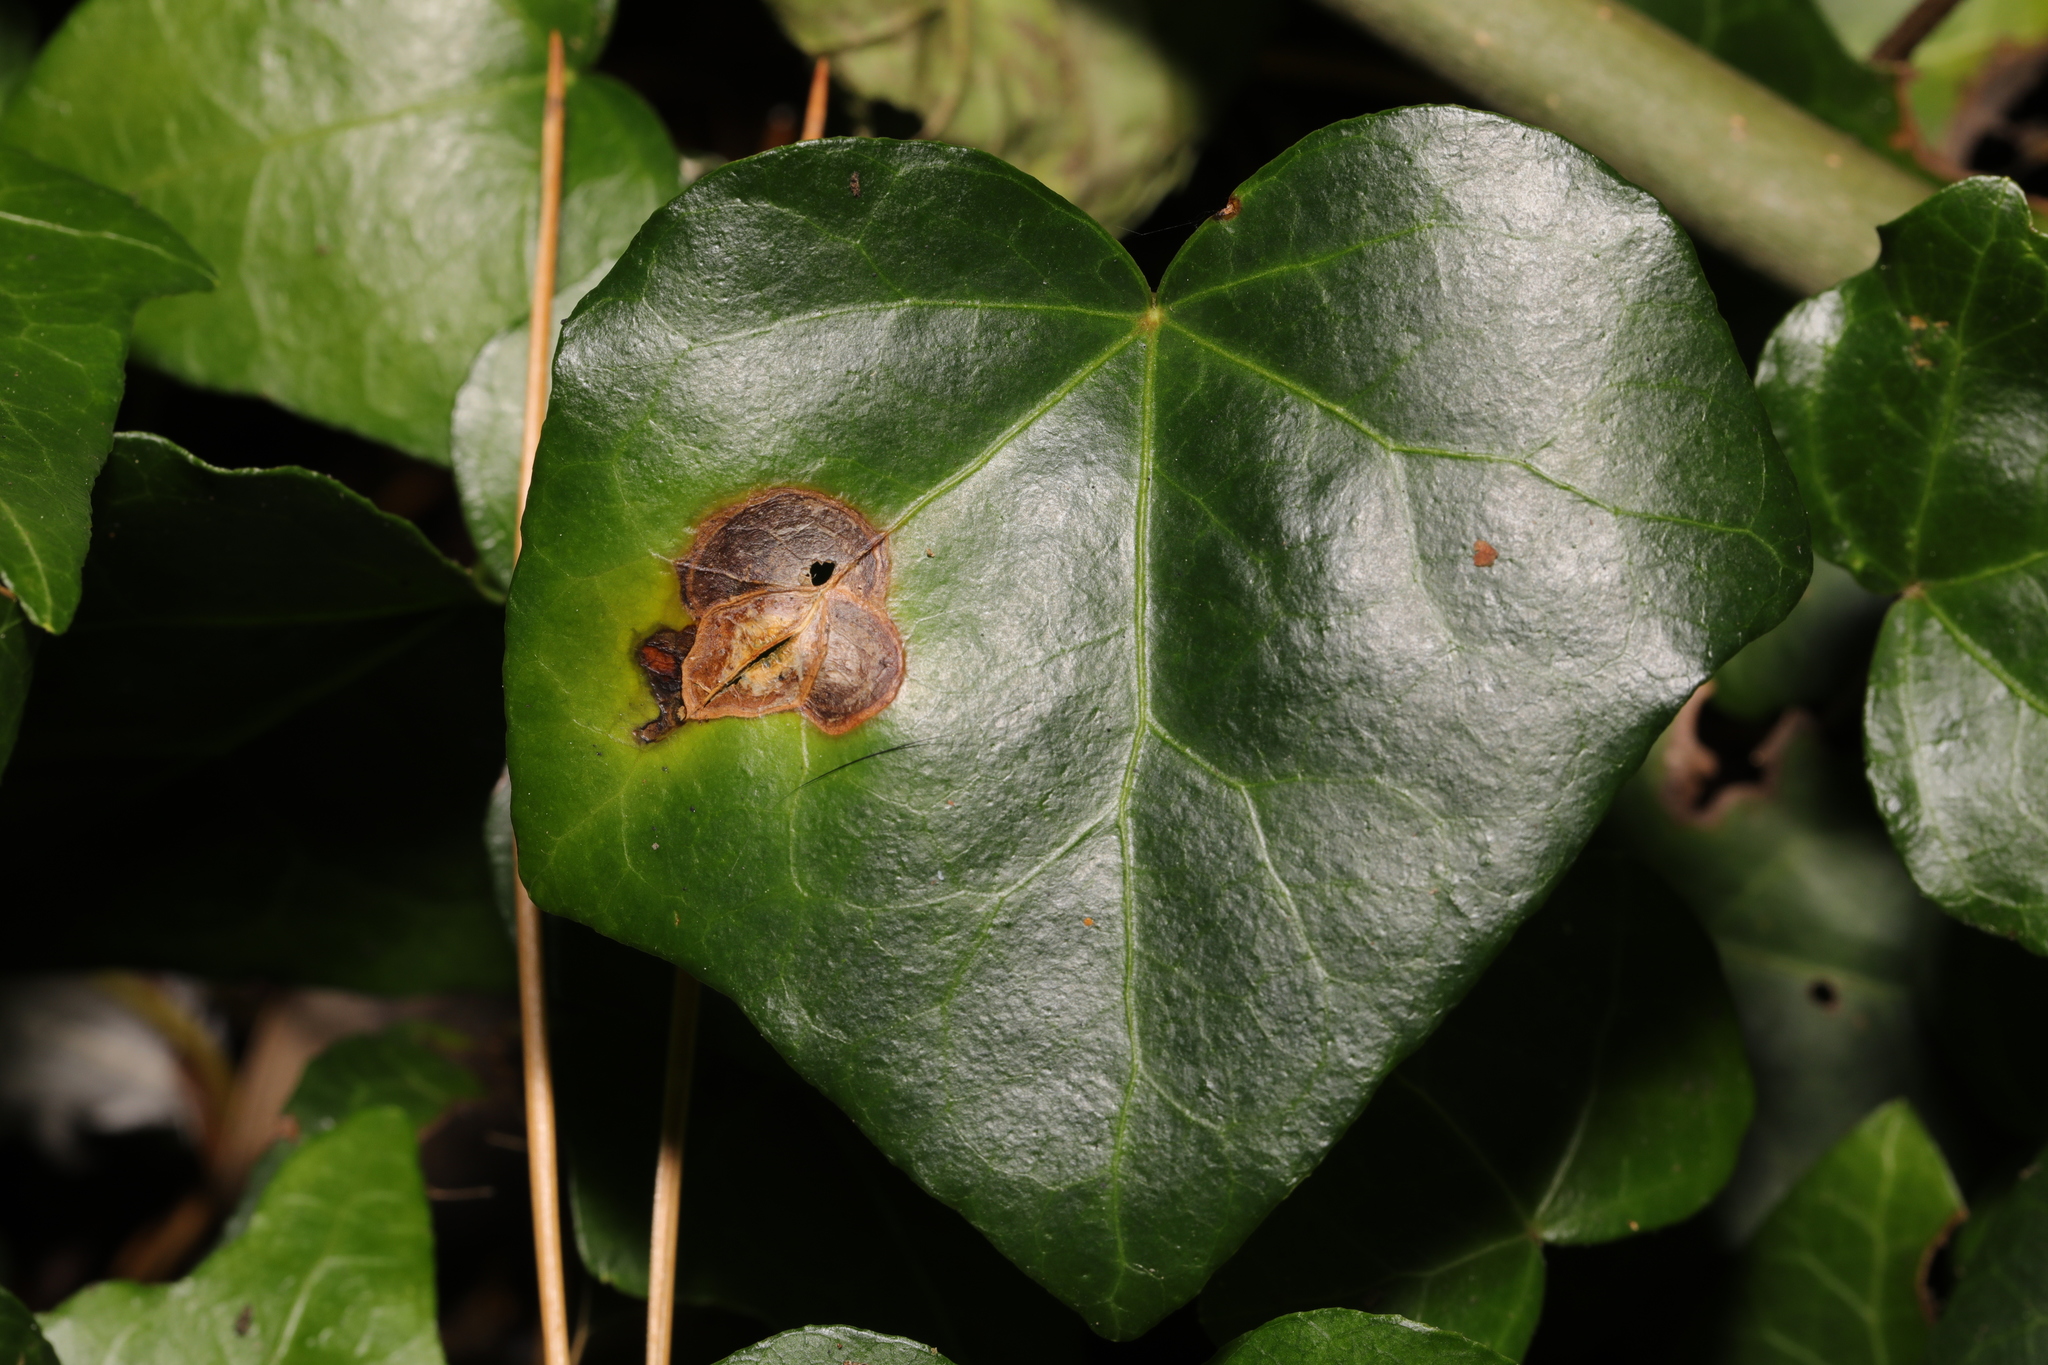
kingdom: Fungi
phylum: Ascomycota
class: Dothideomycetes
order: Pleosporales
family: Didymellaceae
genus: Boeremia
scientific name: Boeremia hedericola
